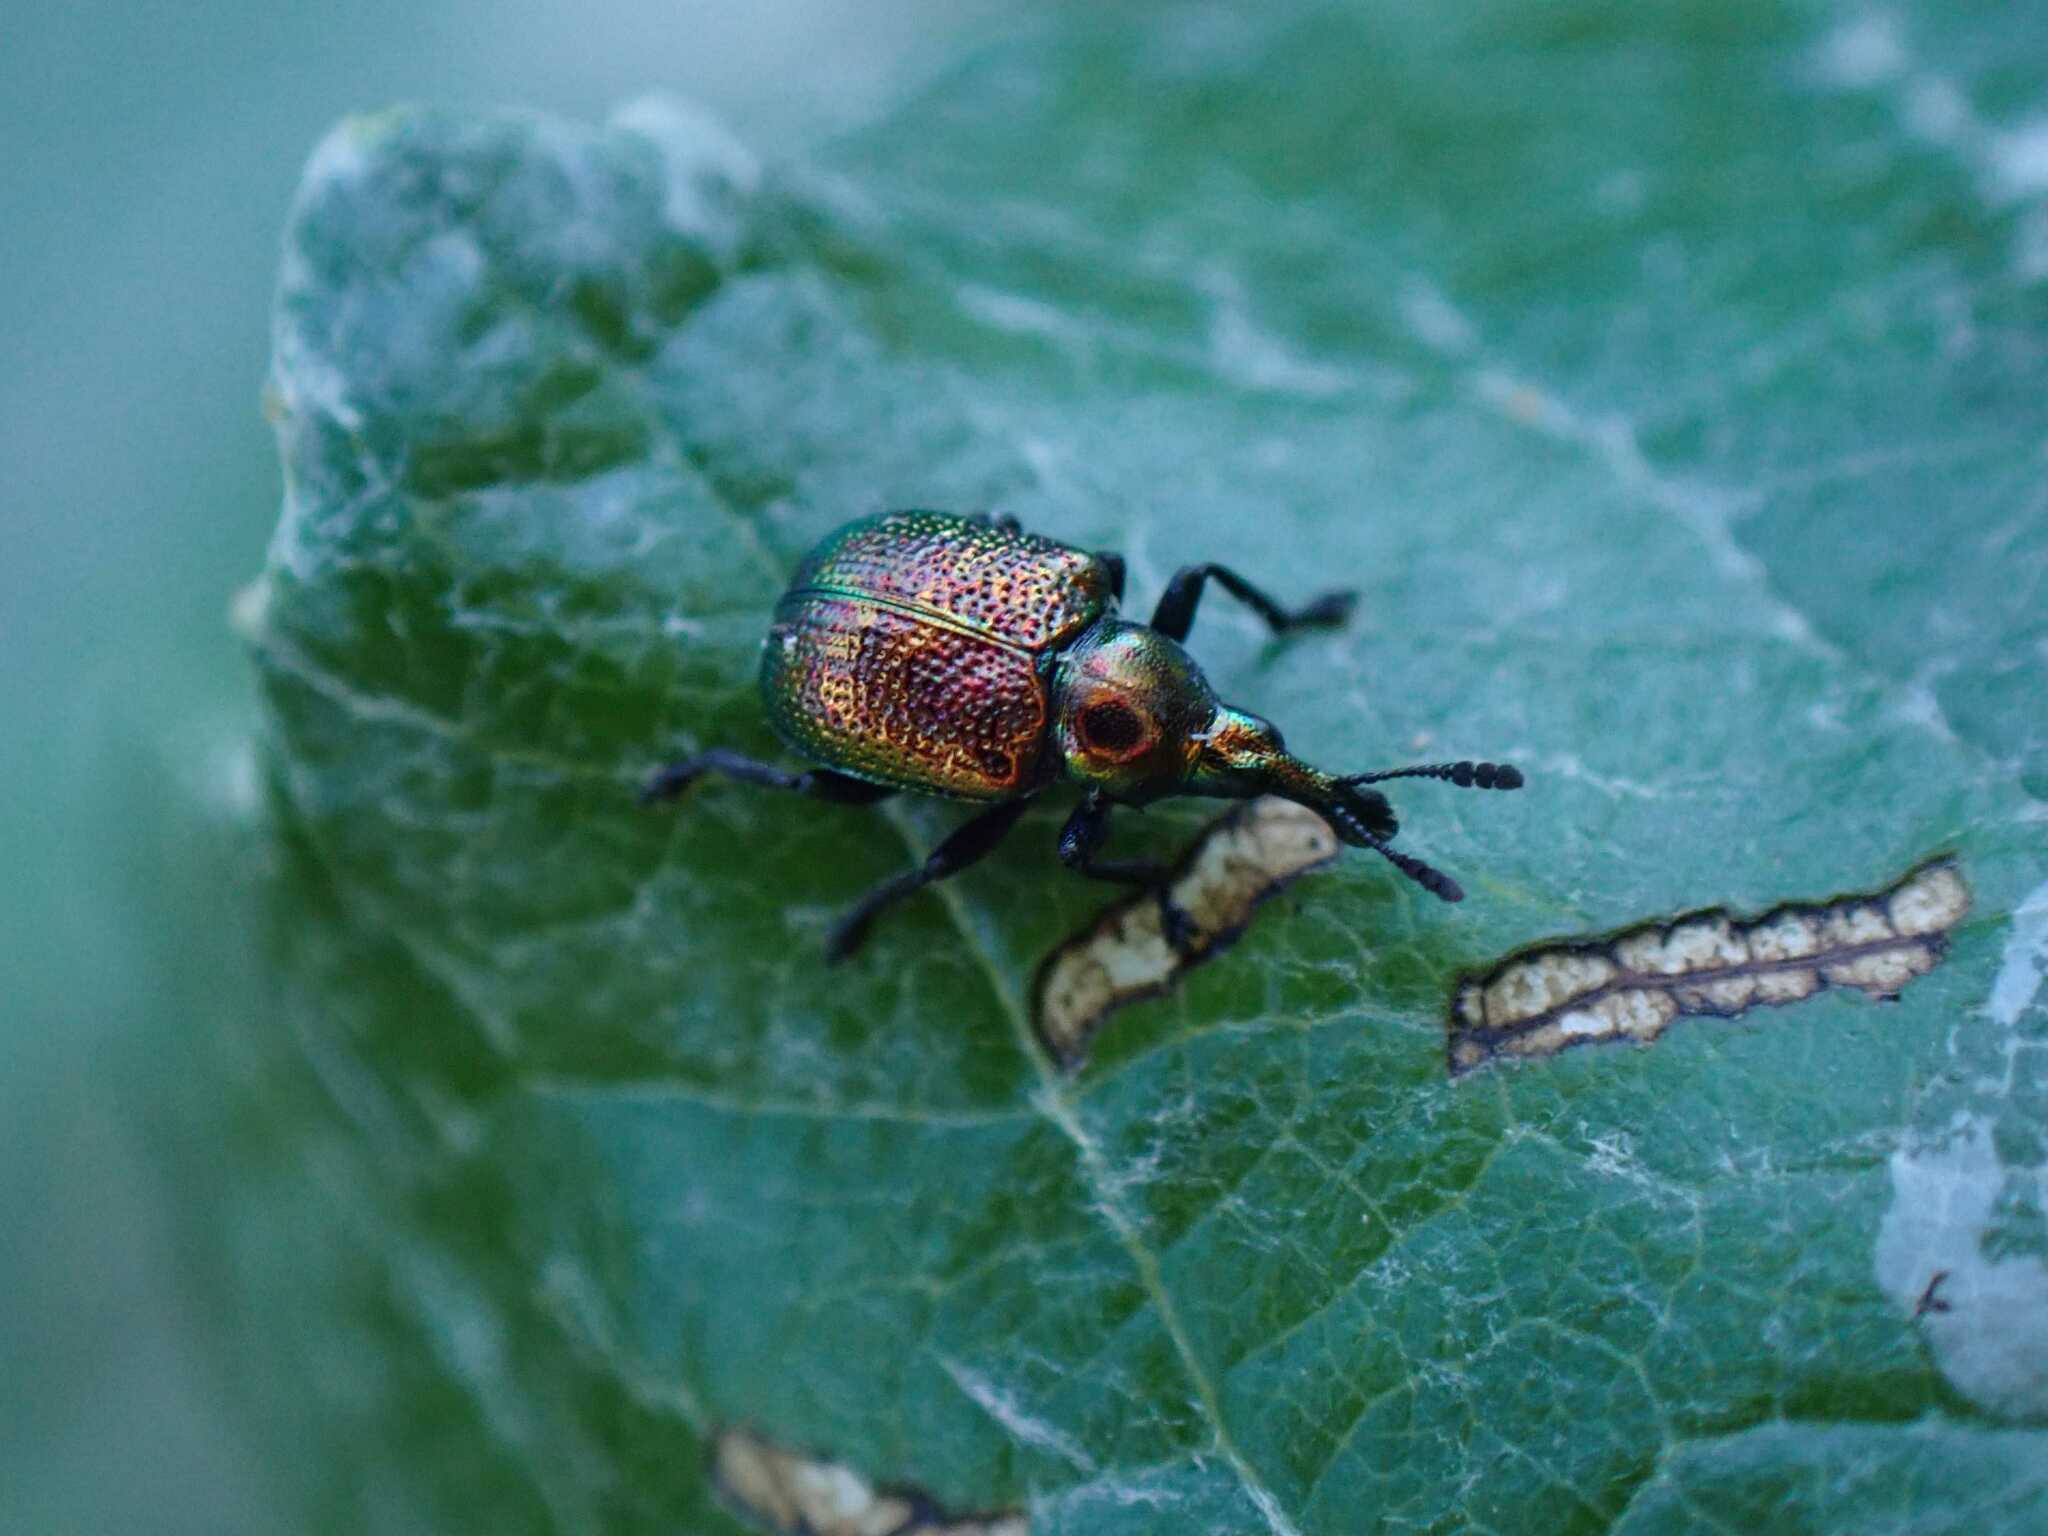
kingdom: Animalia
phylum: Arthropoda
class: Insecta
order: Coleoptera
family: Attelabidae
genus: Byctiscus
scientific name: Byctiscus populi
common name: Leaf-rolling weevil
